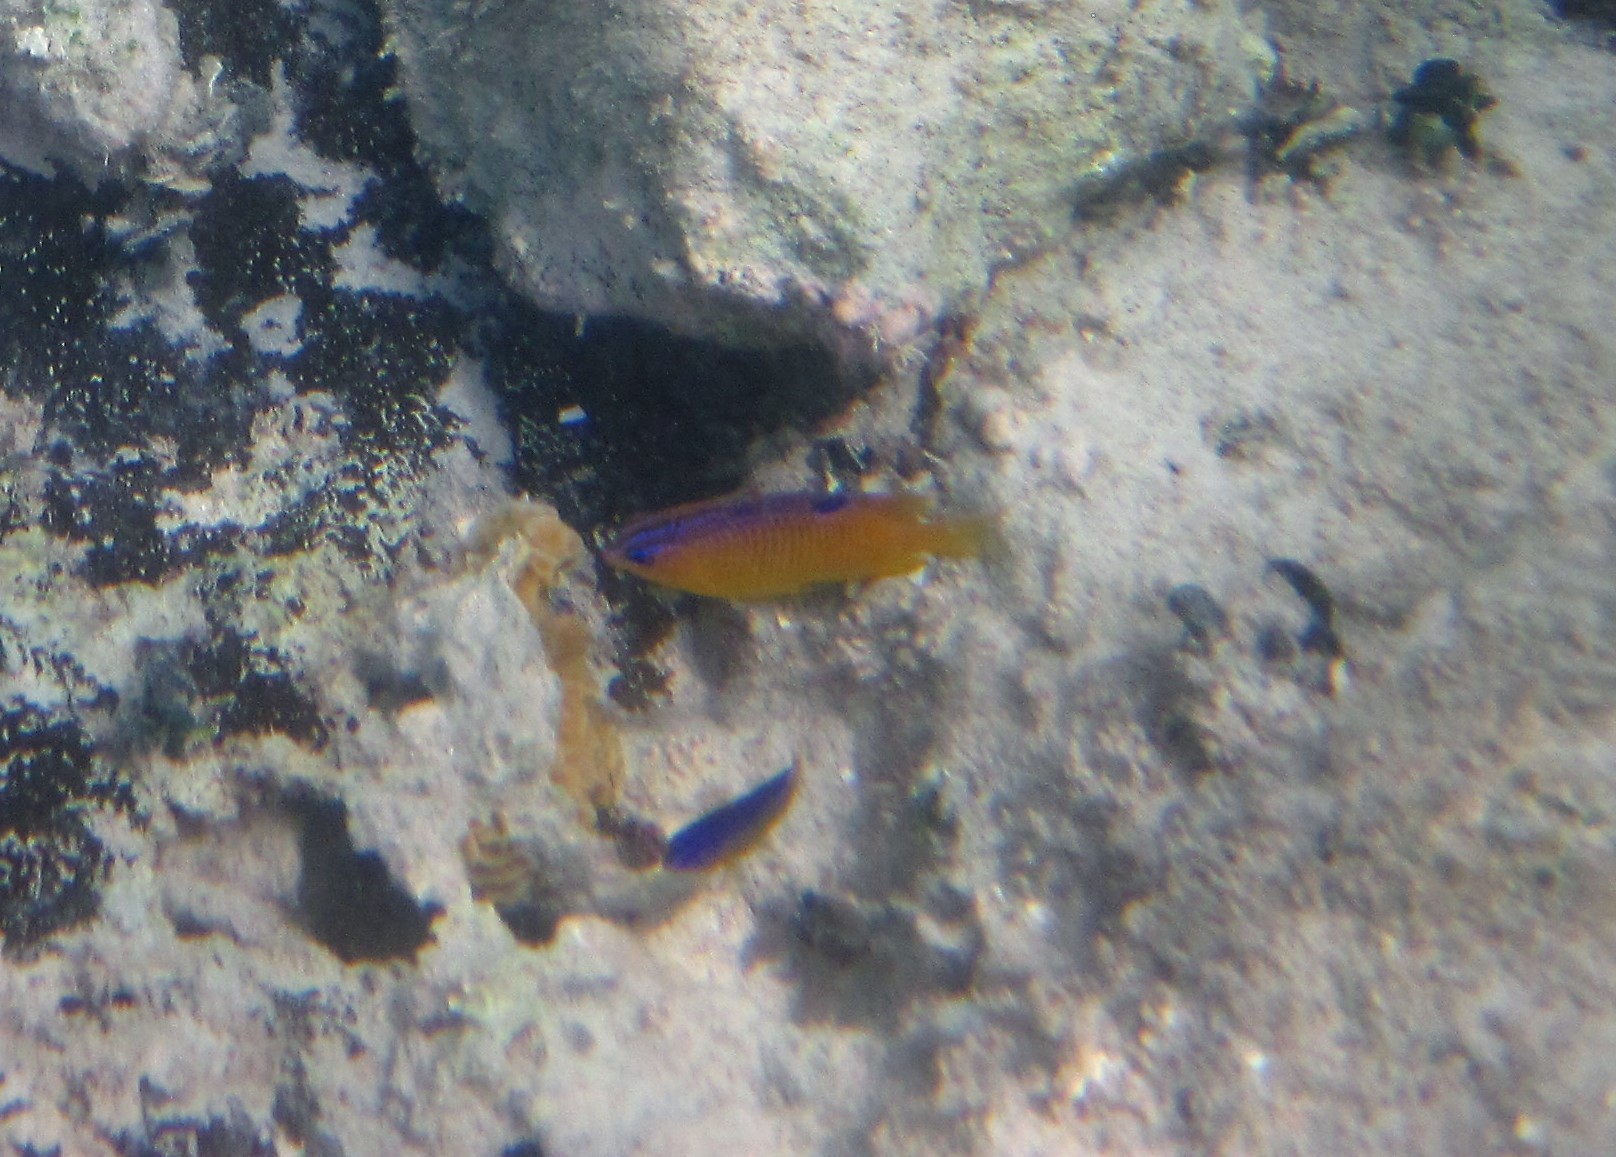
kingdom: Animalia
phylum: Chordata
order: Perciformes
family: Pomacentridae
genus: Stegastes
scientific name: Stegastes diencaeus
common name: Longfin damselfish
